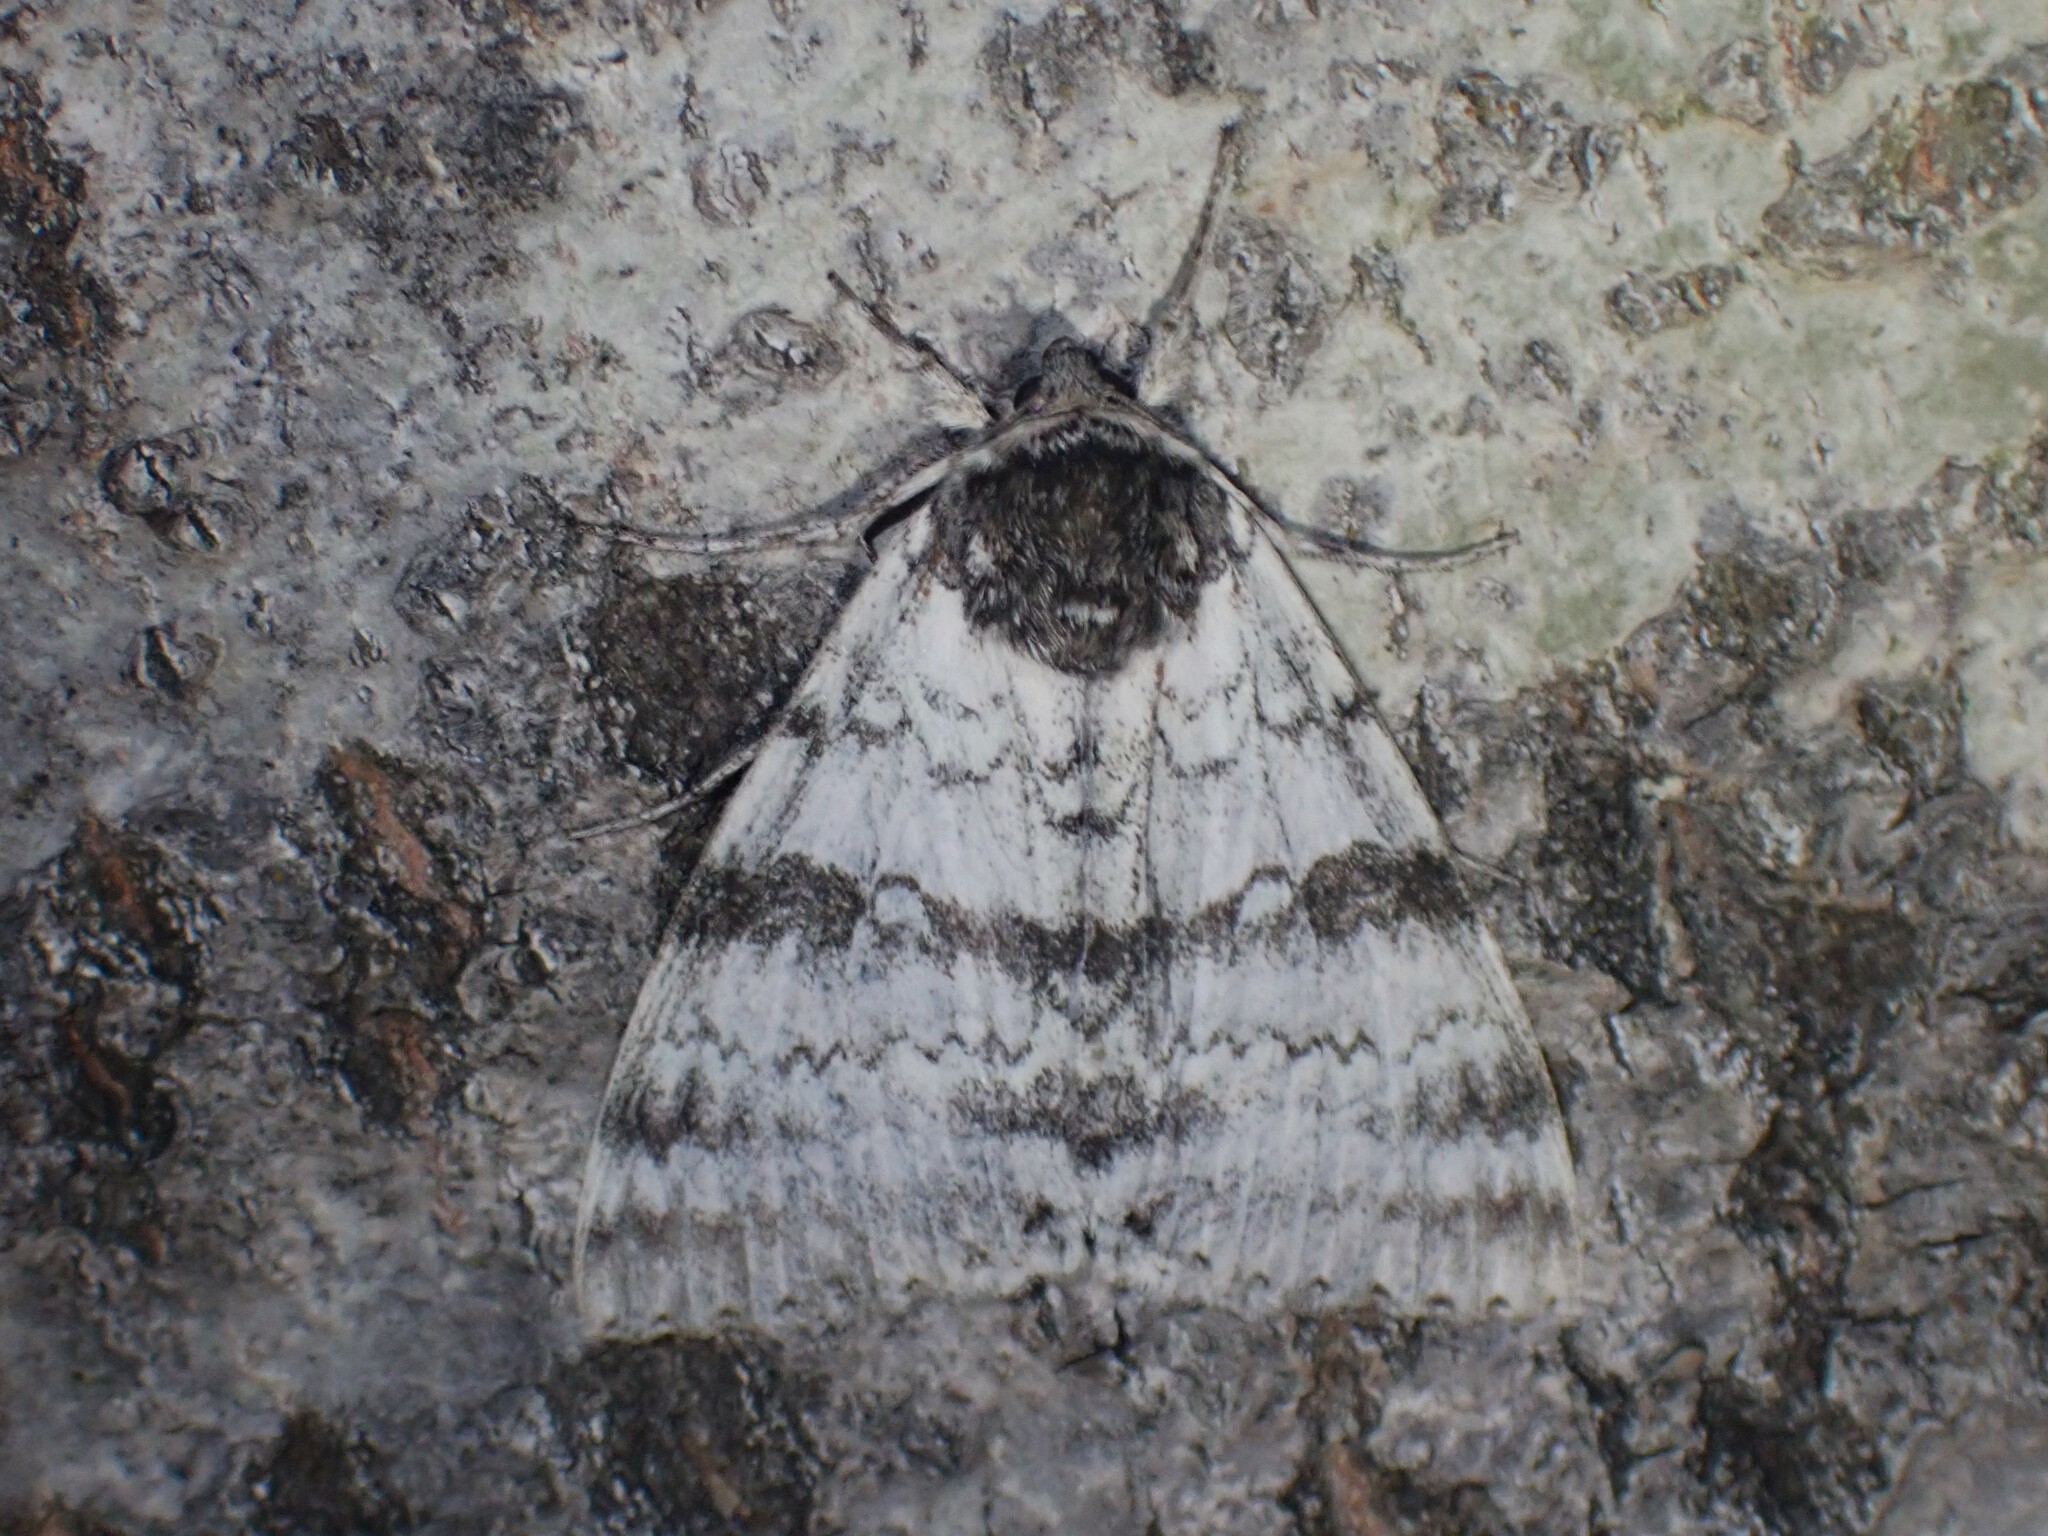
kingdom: Animalia
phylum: Arthropoda
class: Insecta
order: Lepidoptera
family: Erebidae
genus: Catocala
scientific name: Catocala relicta
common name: White underwing
